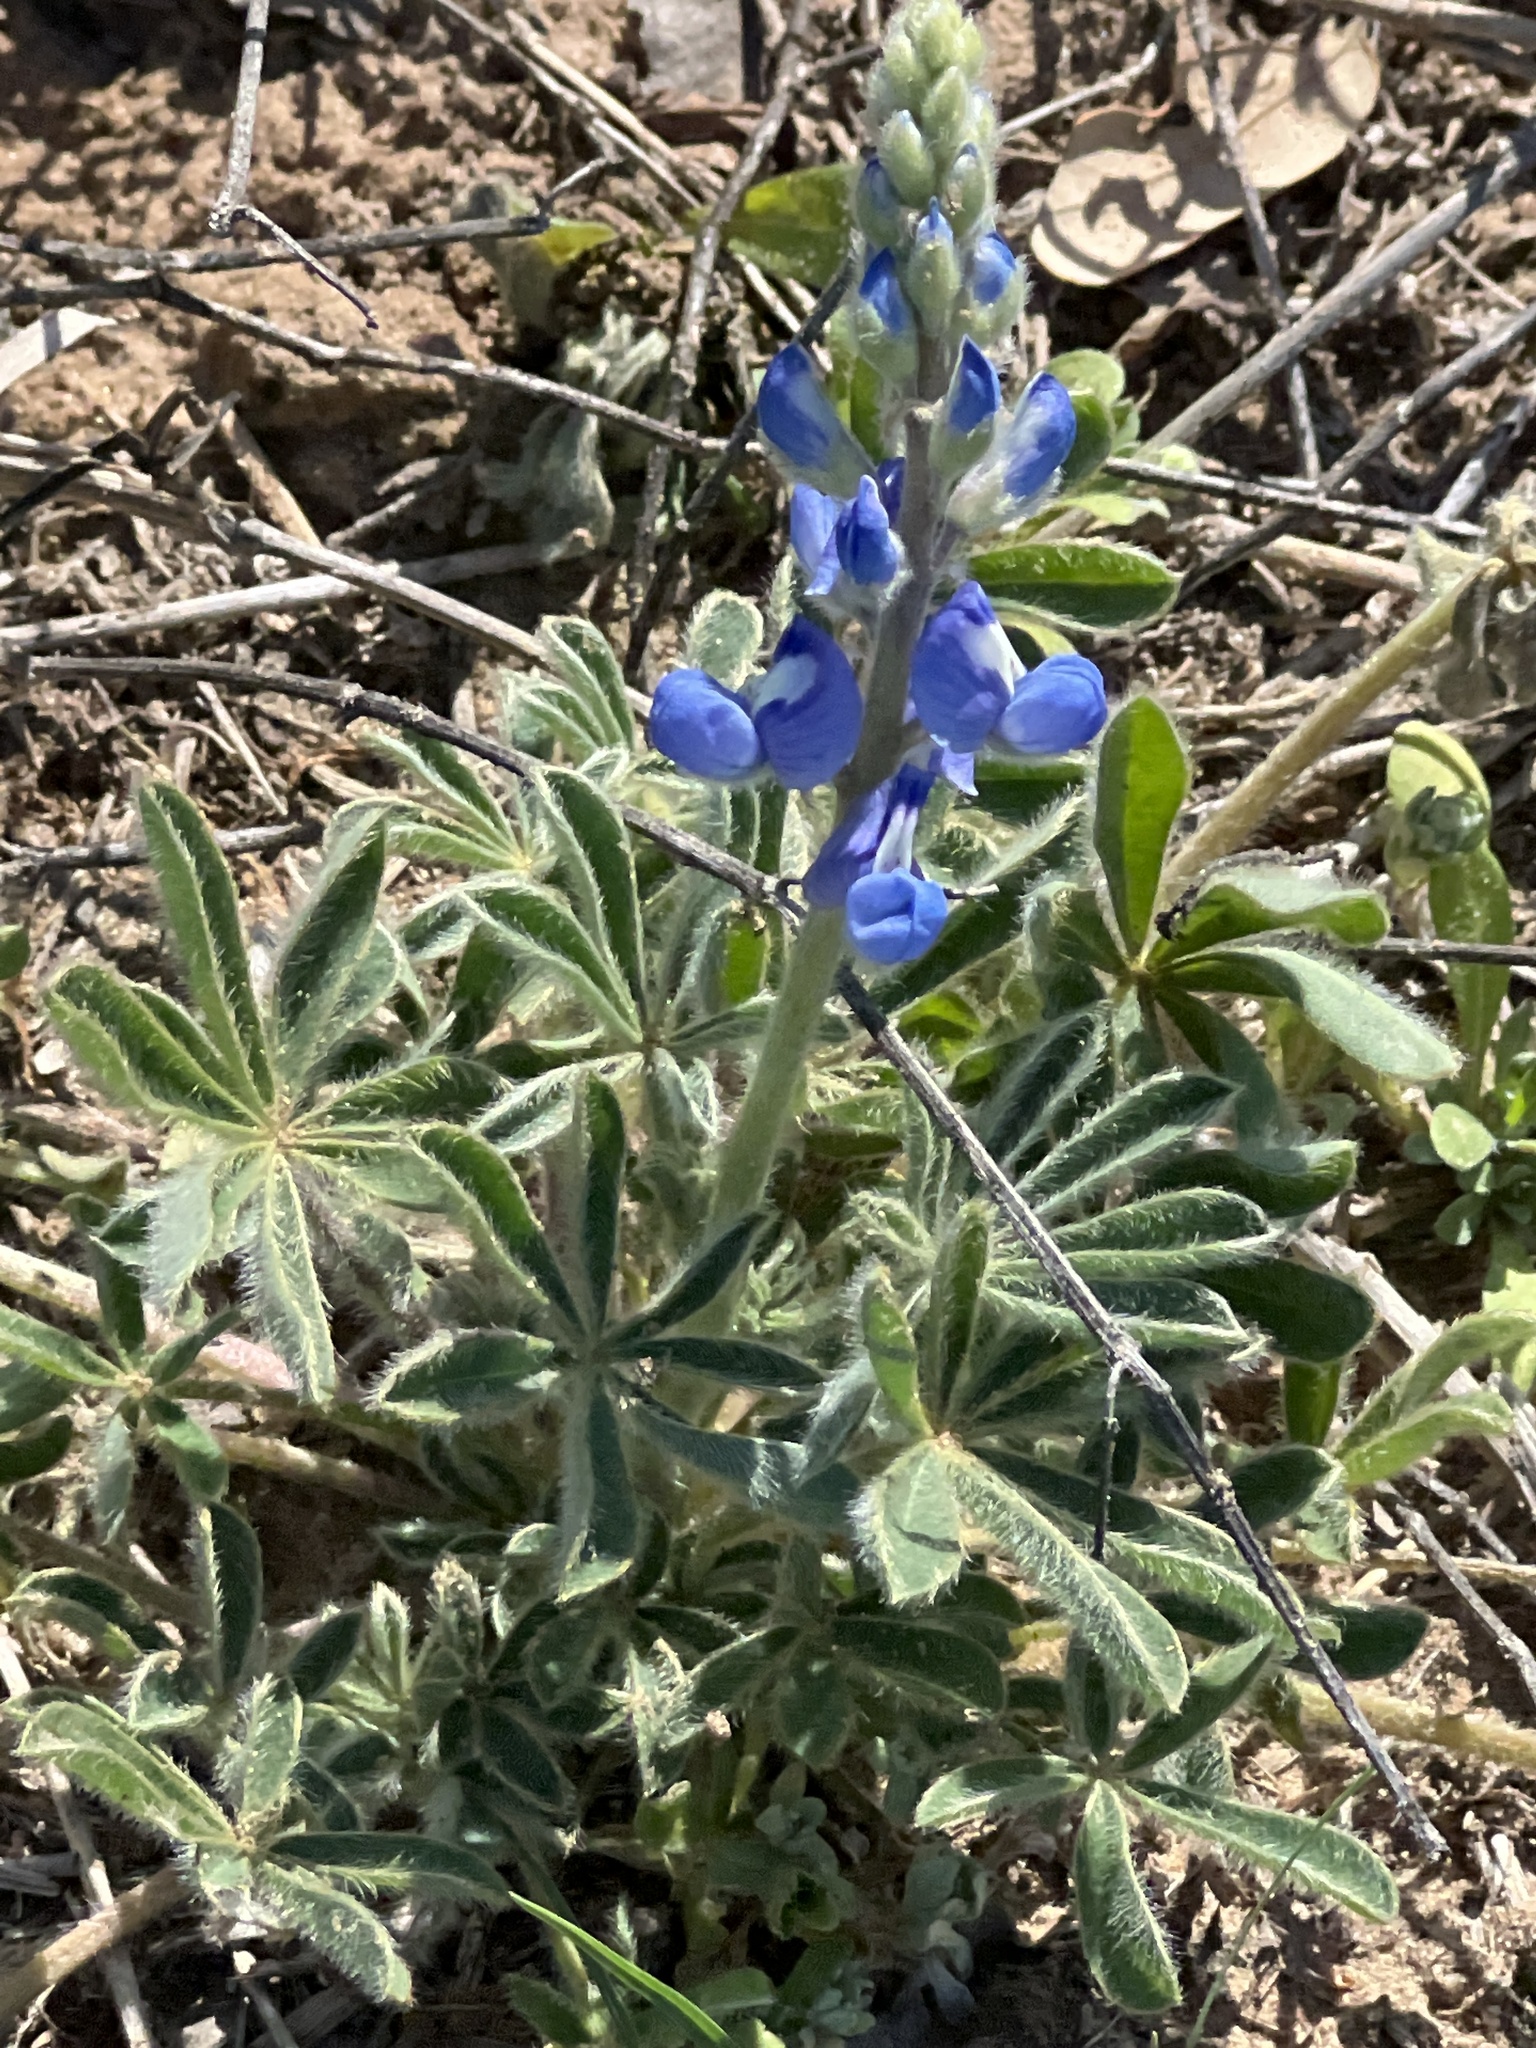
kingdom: Plantae
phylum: Tracheophyta
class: Magnoliopsida
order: Fabales
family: Fabaceae
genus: Lupinus
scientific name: Lupinus texensis
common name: Texas bluebonnet
